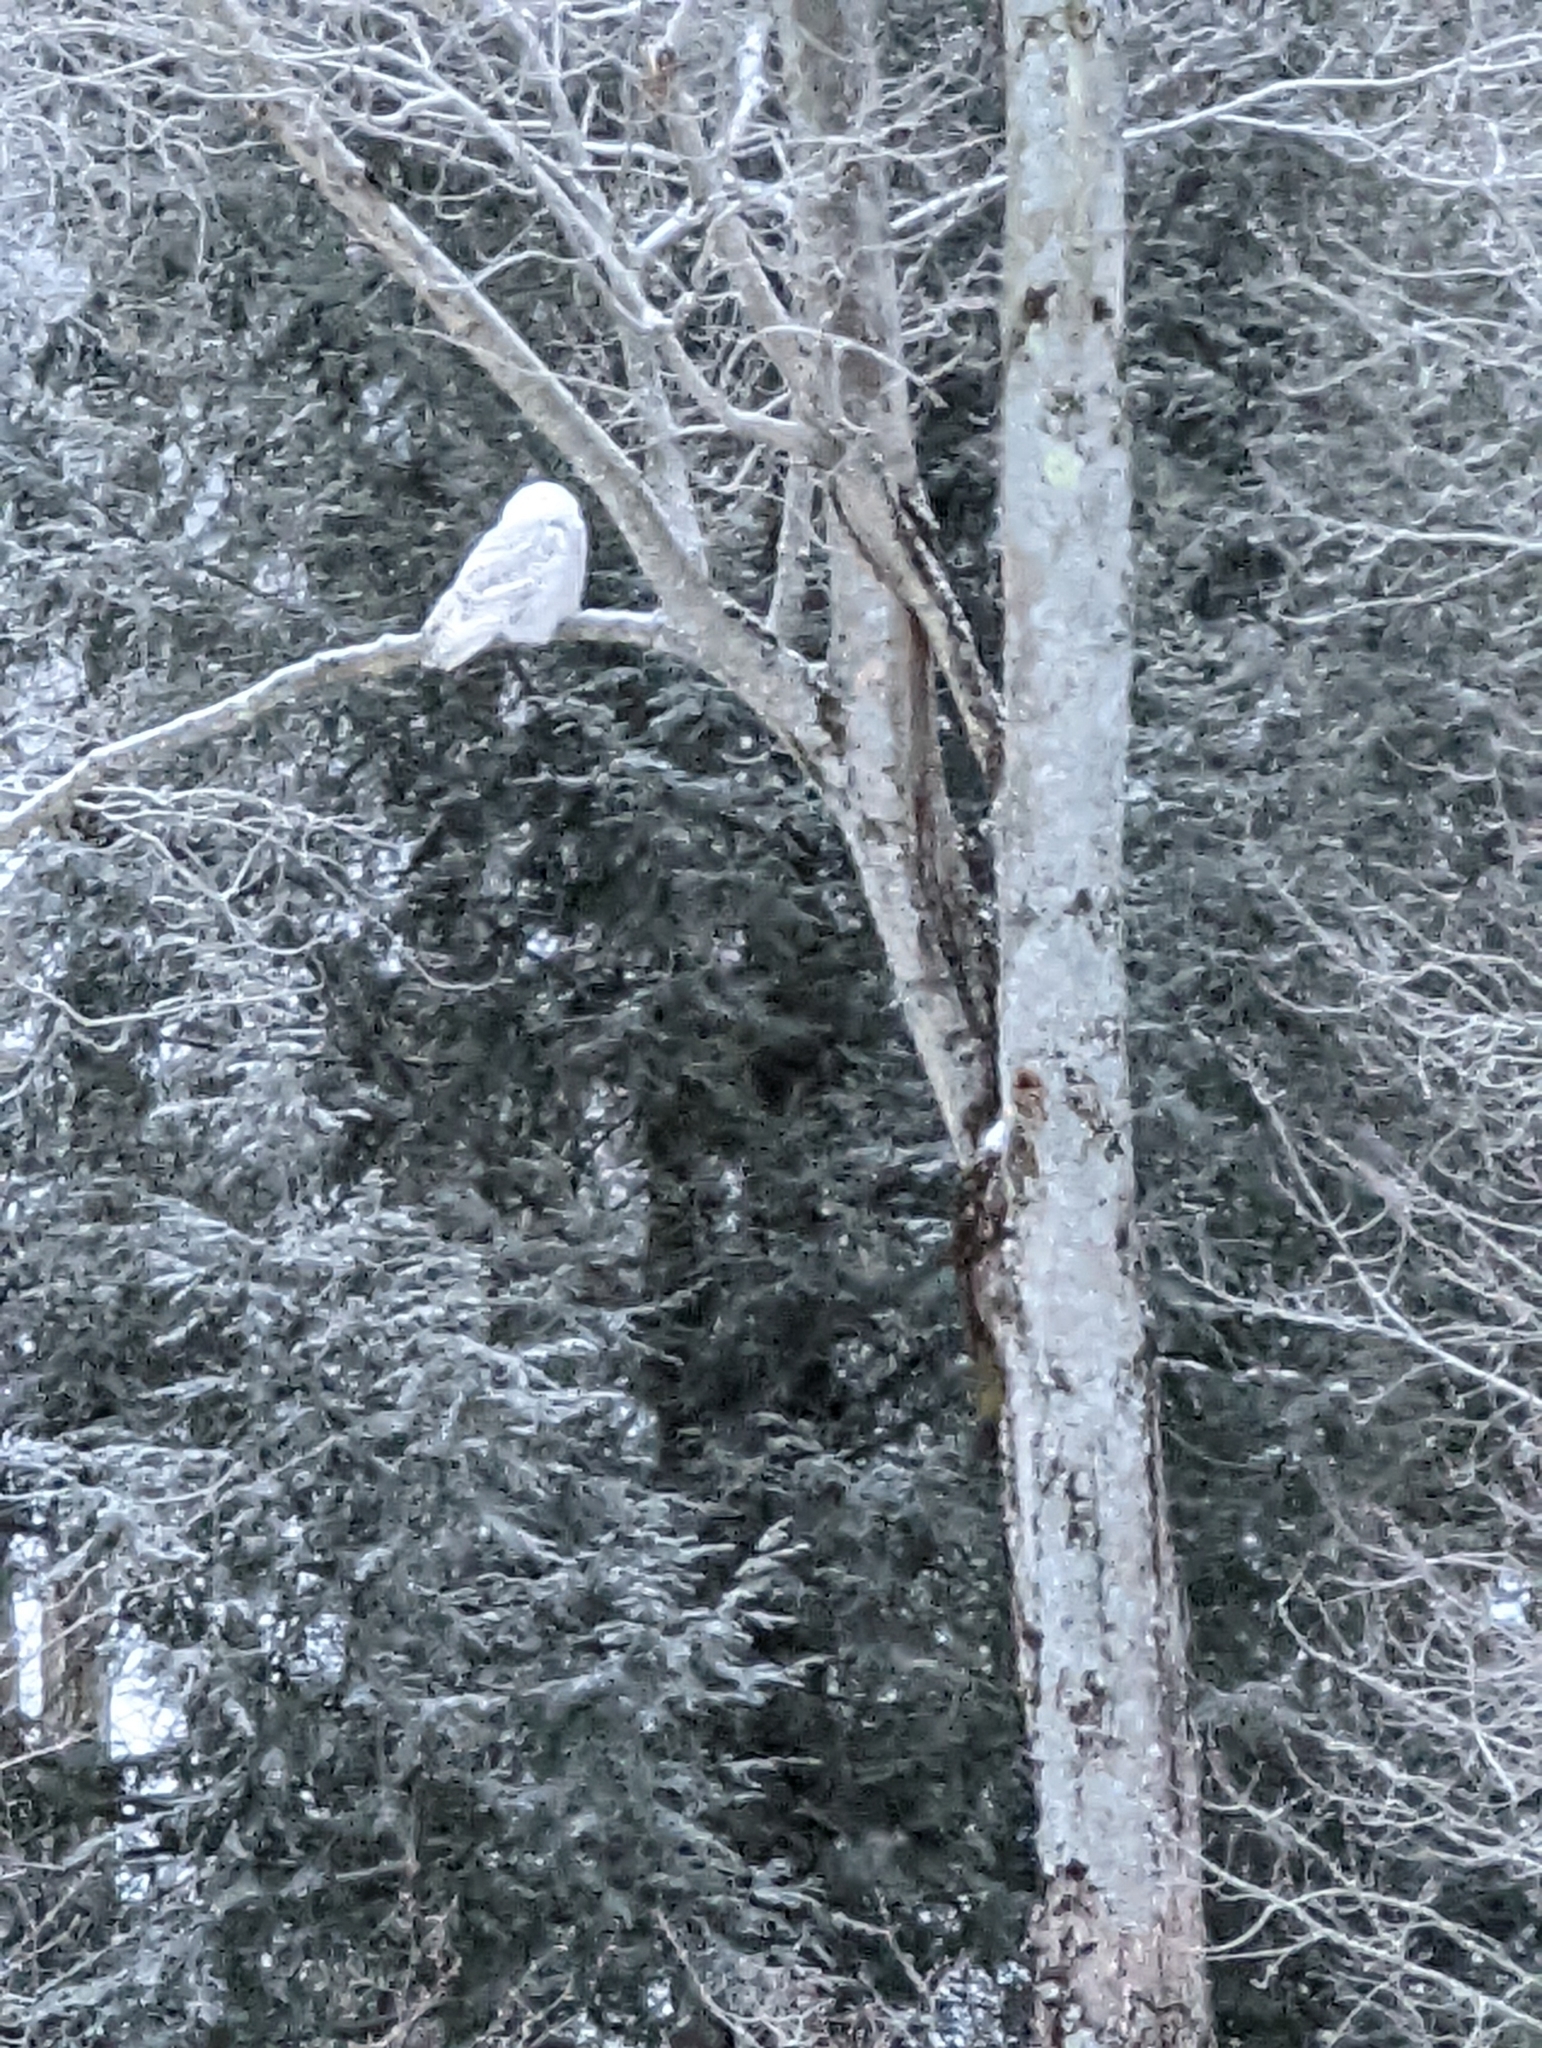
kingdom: Animalia
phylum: Chordata
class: Aves
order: Strigiformes
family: Strigidae
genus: Bubo
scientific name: Bubo scandiacus
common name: Snowy owl
